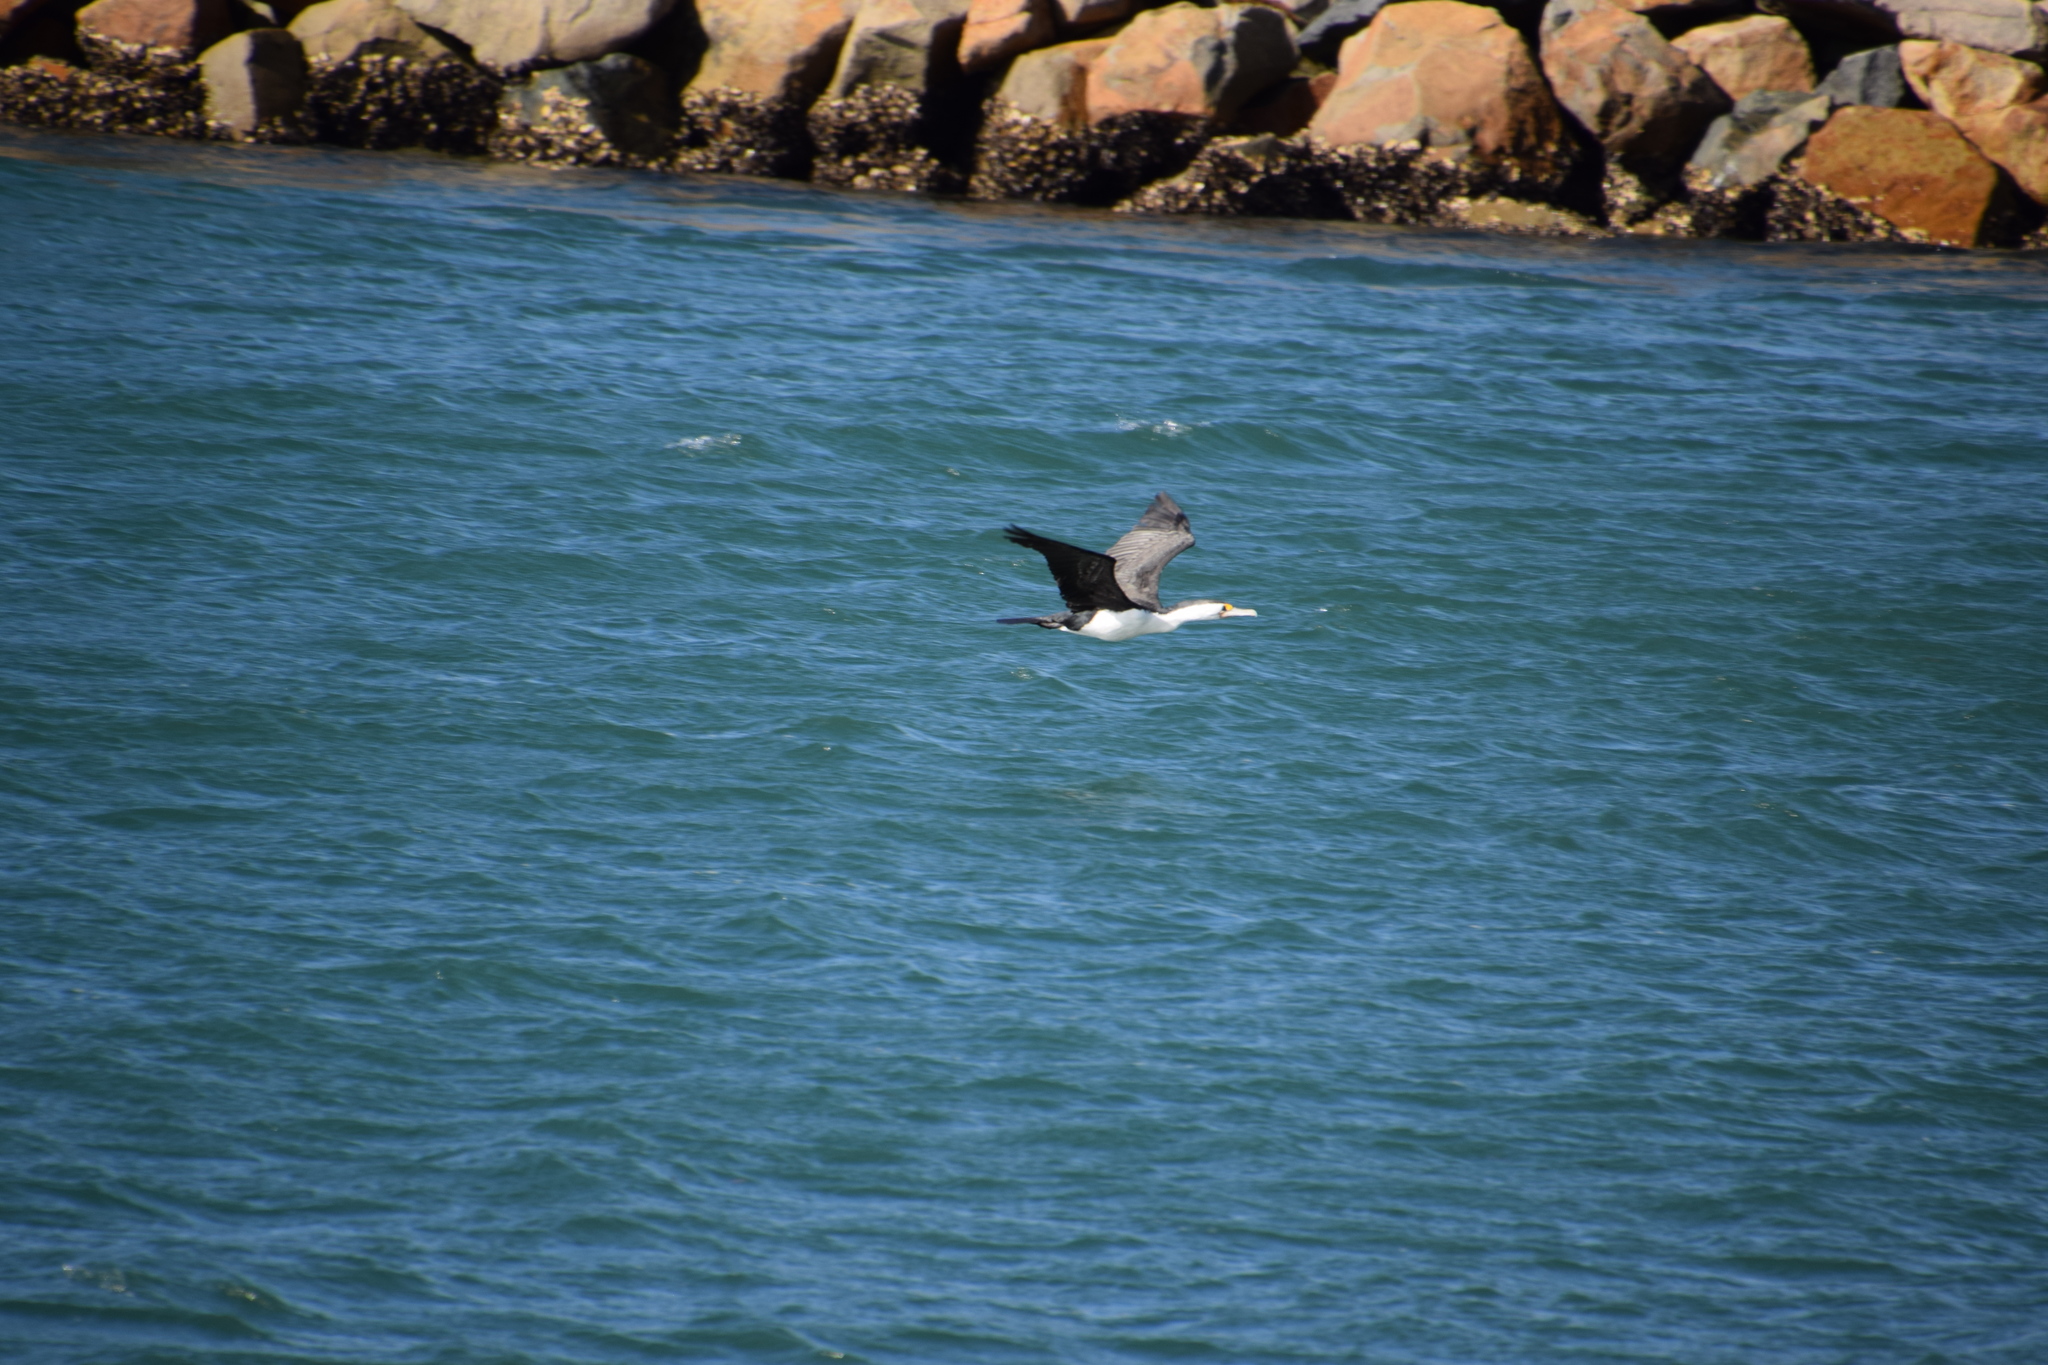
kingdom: Animalia
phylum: Chordata
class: Aves
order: Suliformes
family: Phalacrocoracidae
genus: Phalacrocorax
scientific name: Phalacrocorax varius
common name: Pied cormorant
